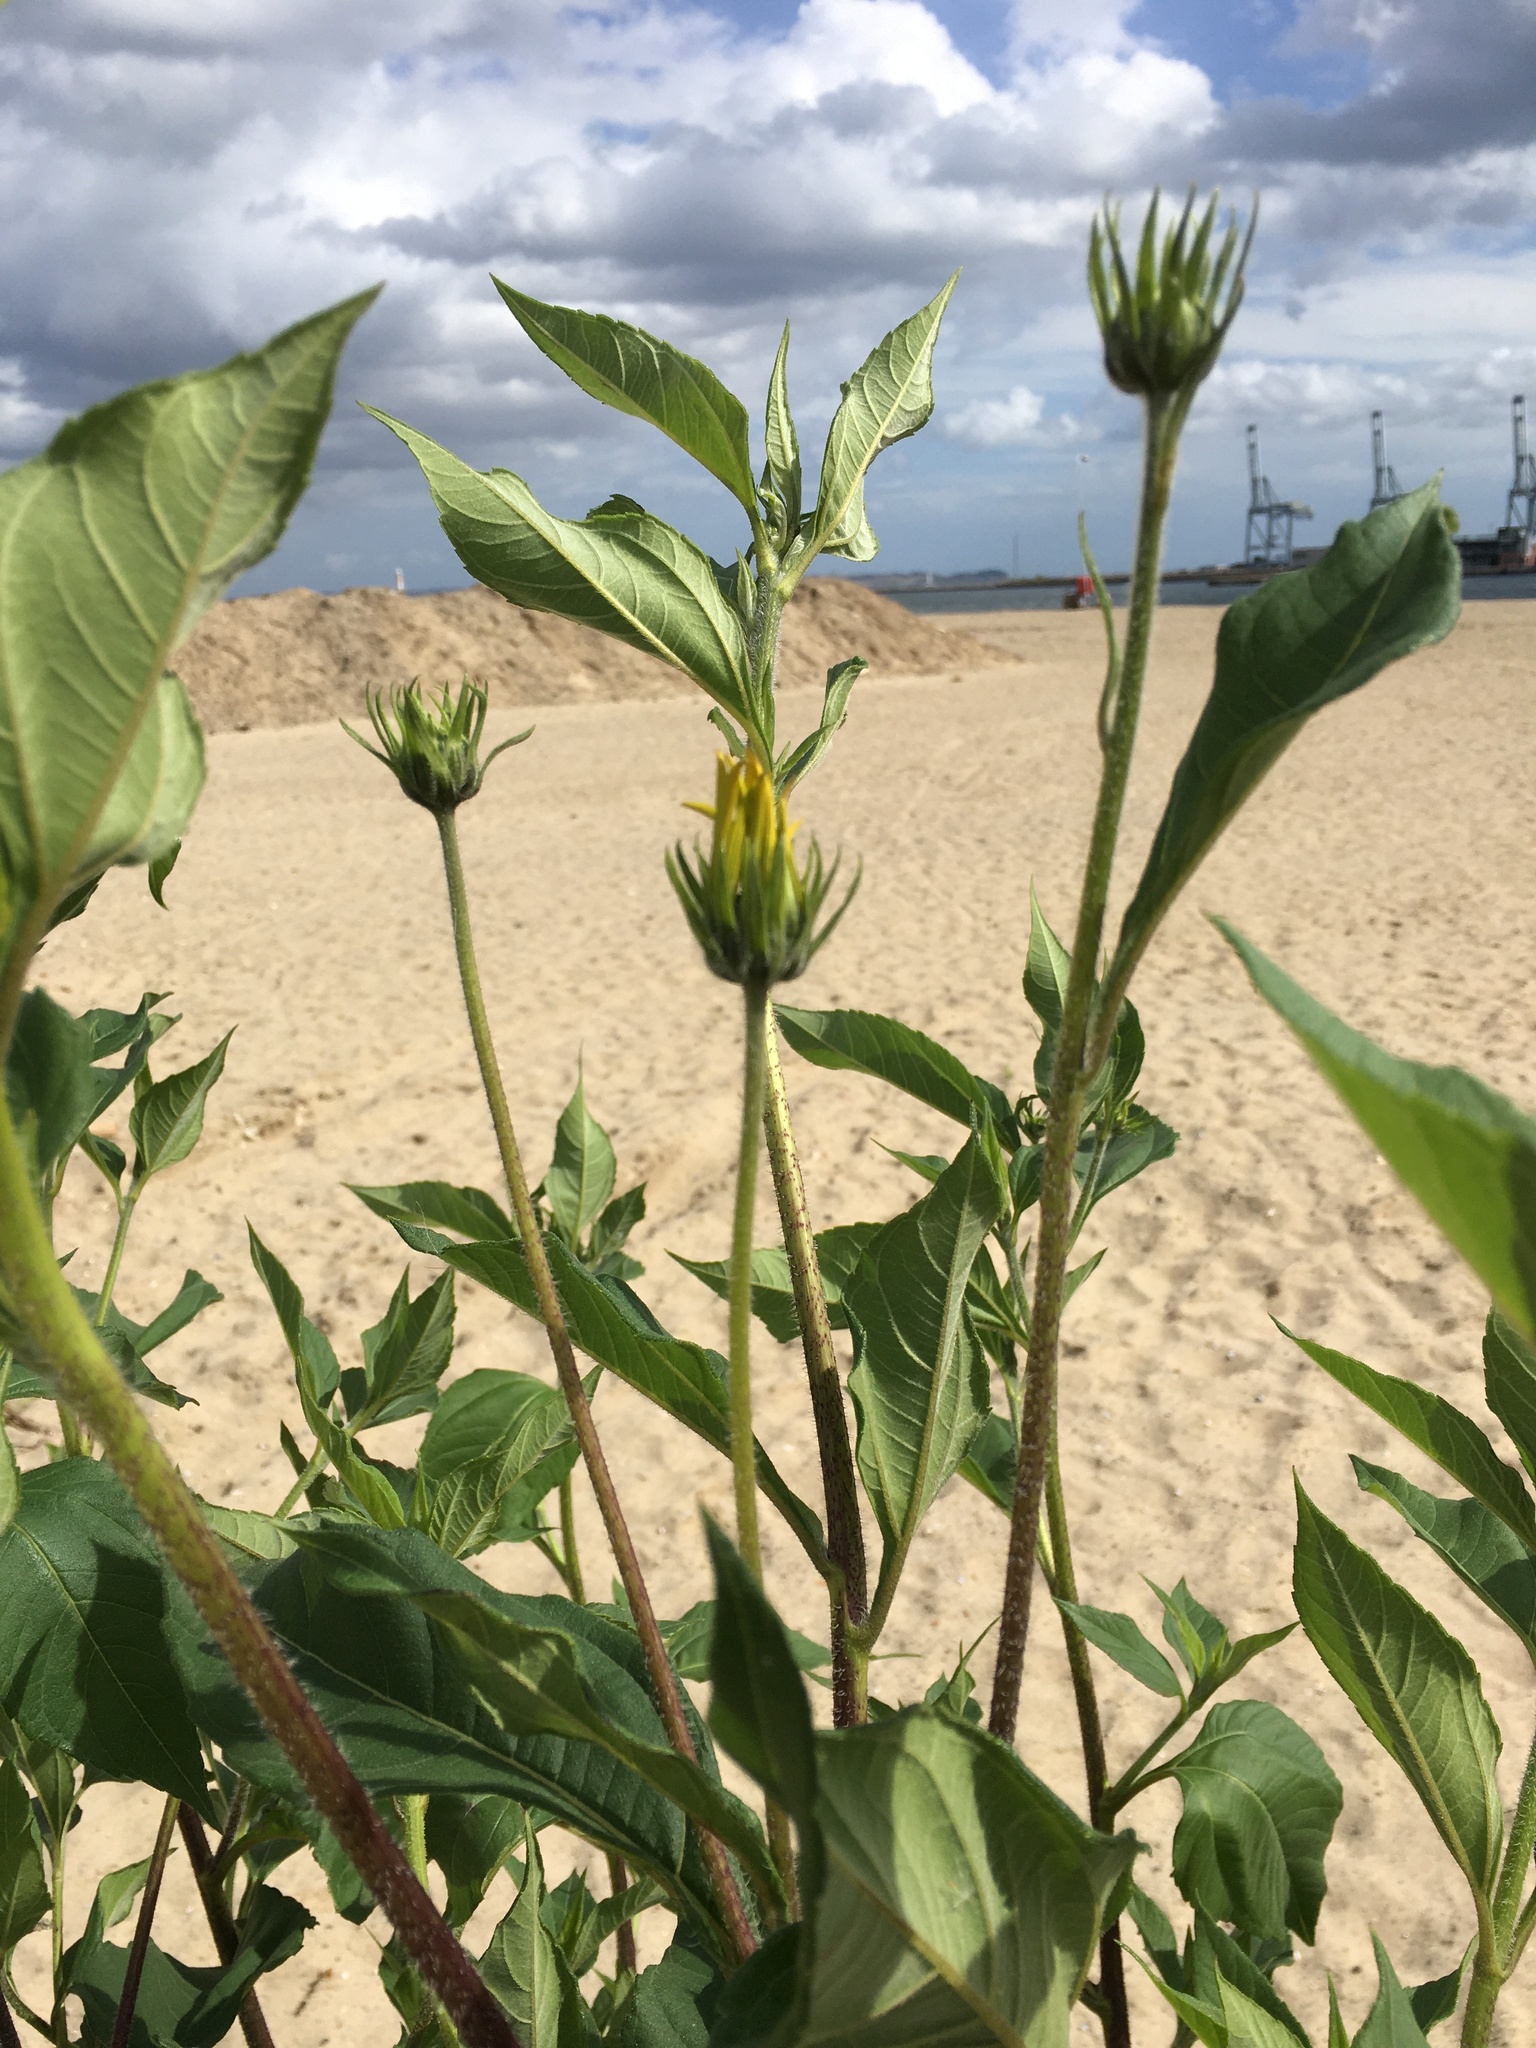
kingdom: Plantae
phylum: Tracheophyta
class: Magnoliopsida
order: Asterales
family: Asteraceae
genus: Helianthus
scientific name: Helianthus tuberosus
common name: Jerusalem artichoke
